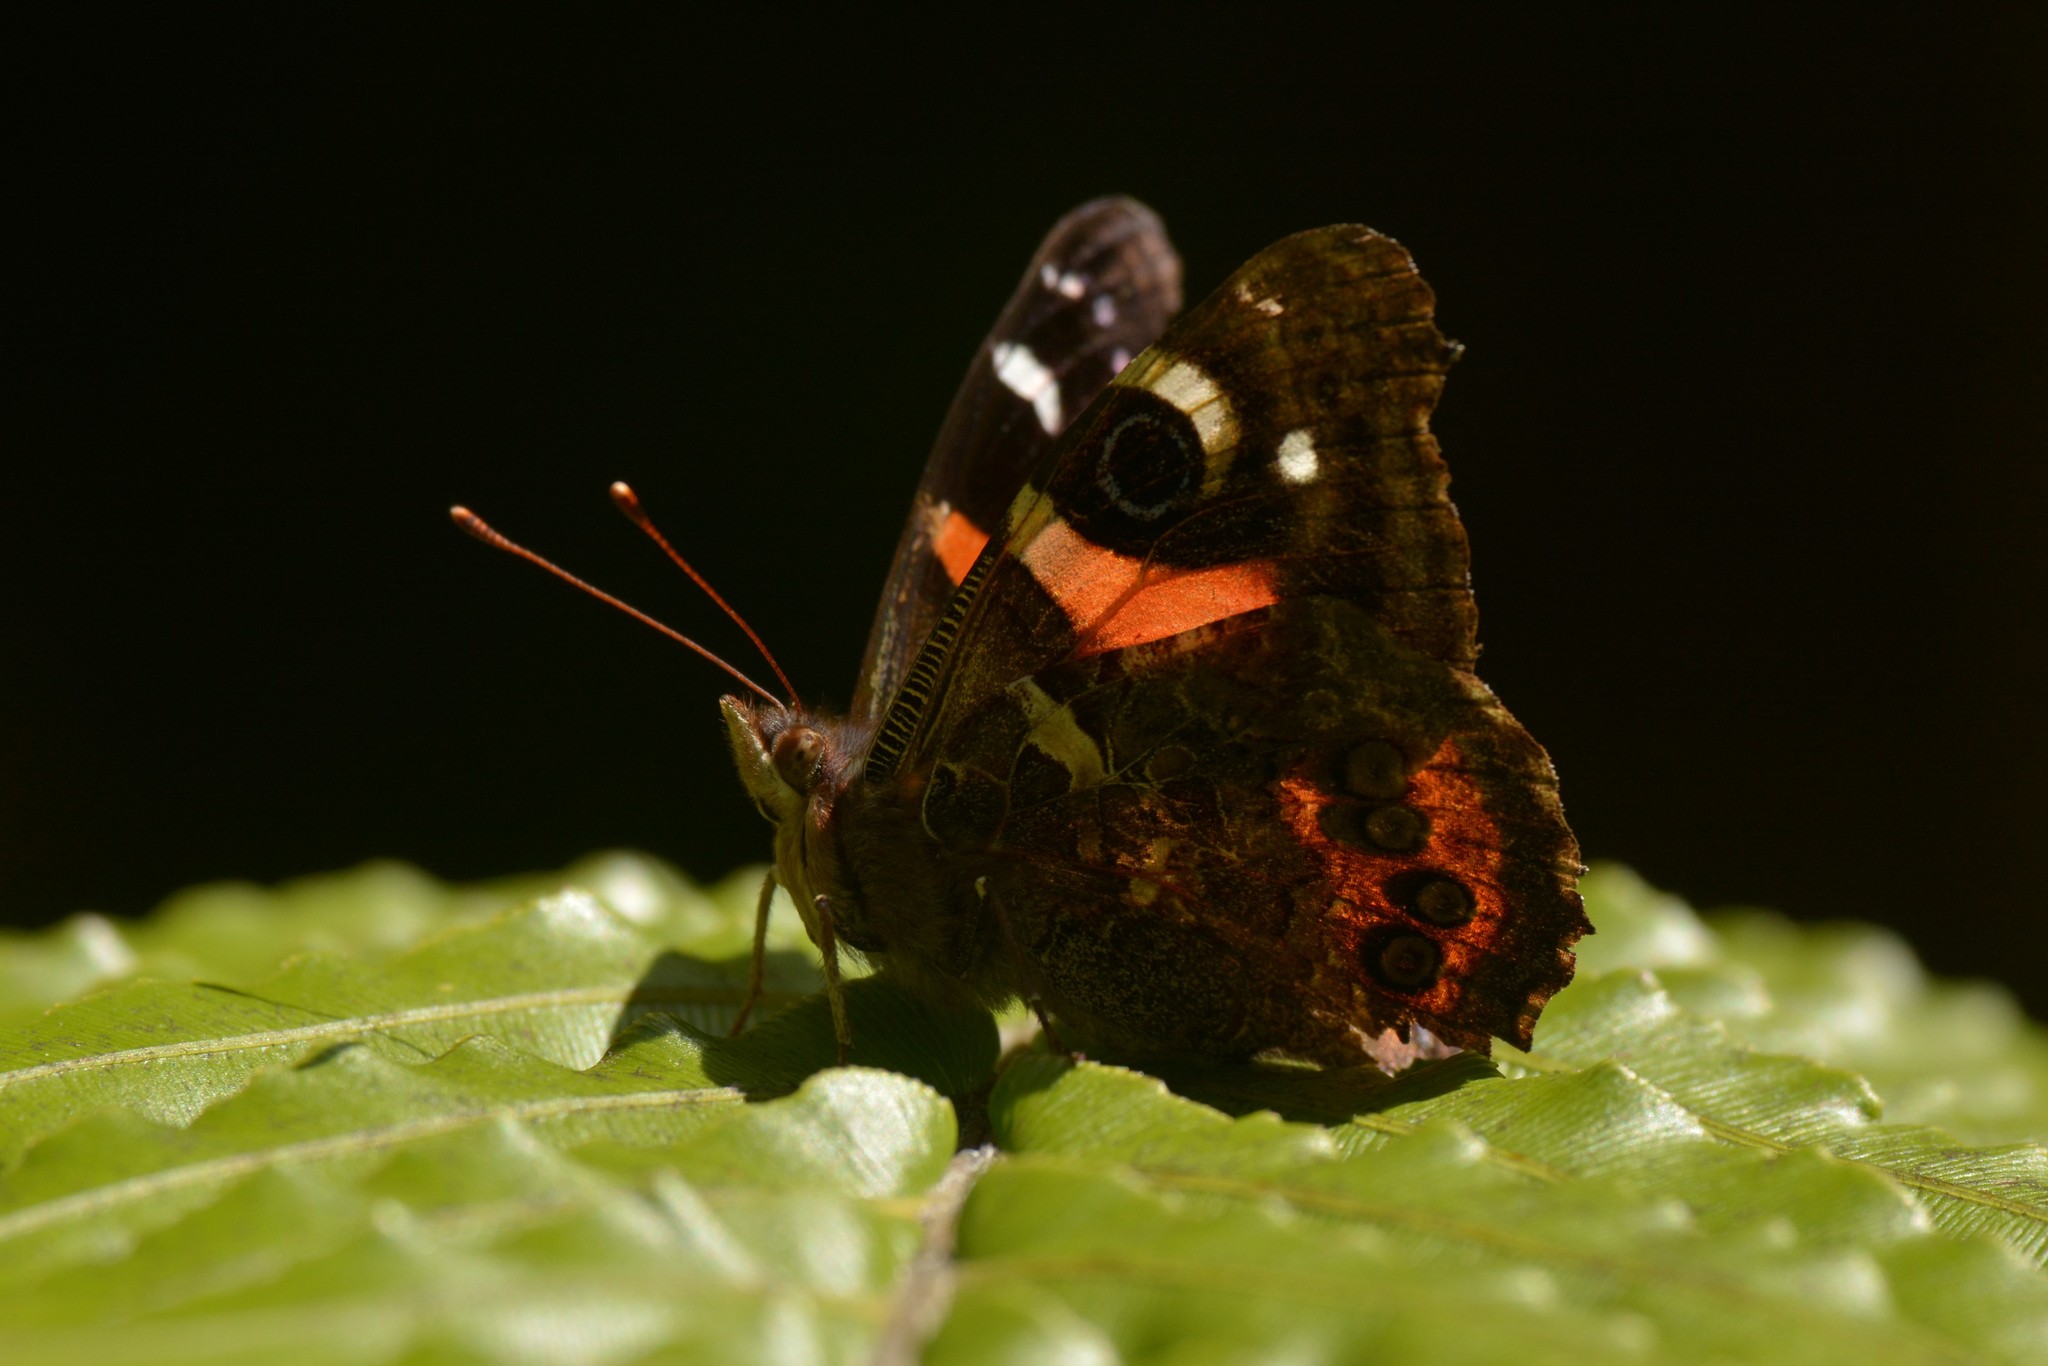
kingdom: Animalia
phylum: Arthropoda
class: Insecta
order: Lepidoptera
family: Nymphalidae
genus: Vanessa
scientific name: Vanessa gonerilla
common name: New zealand red admiral
